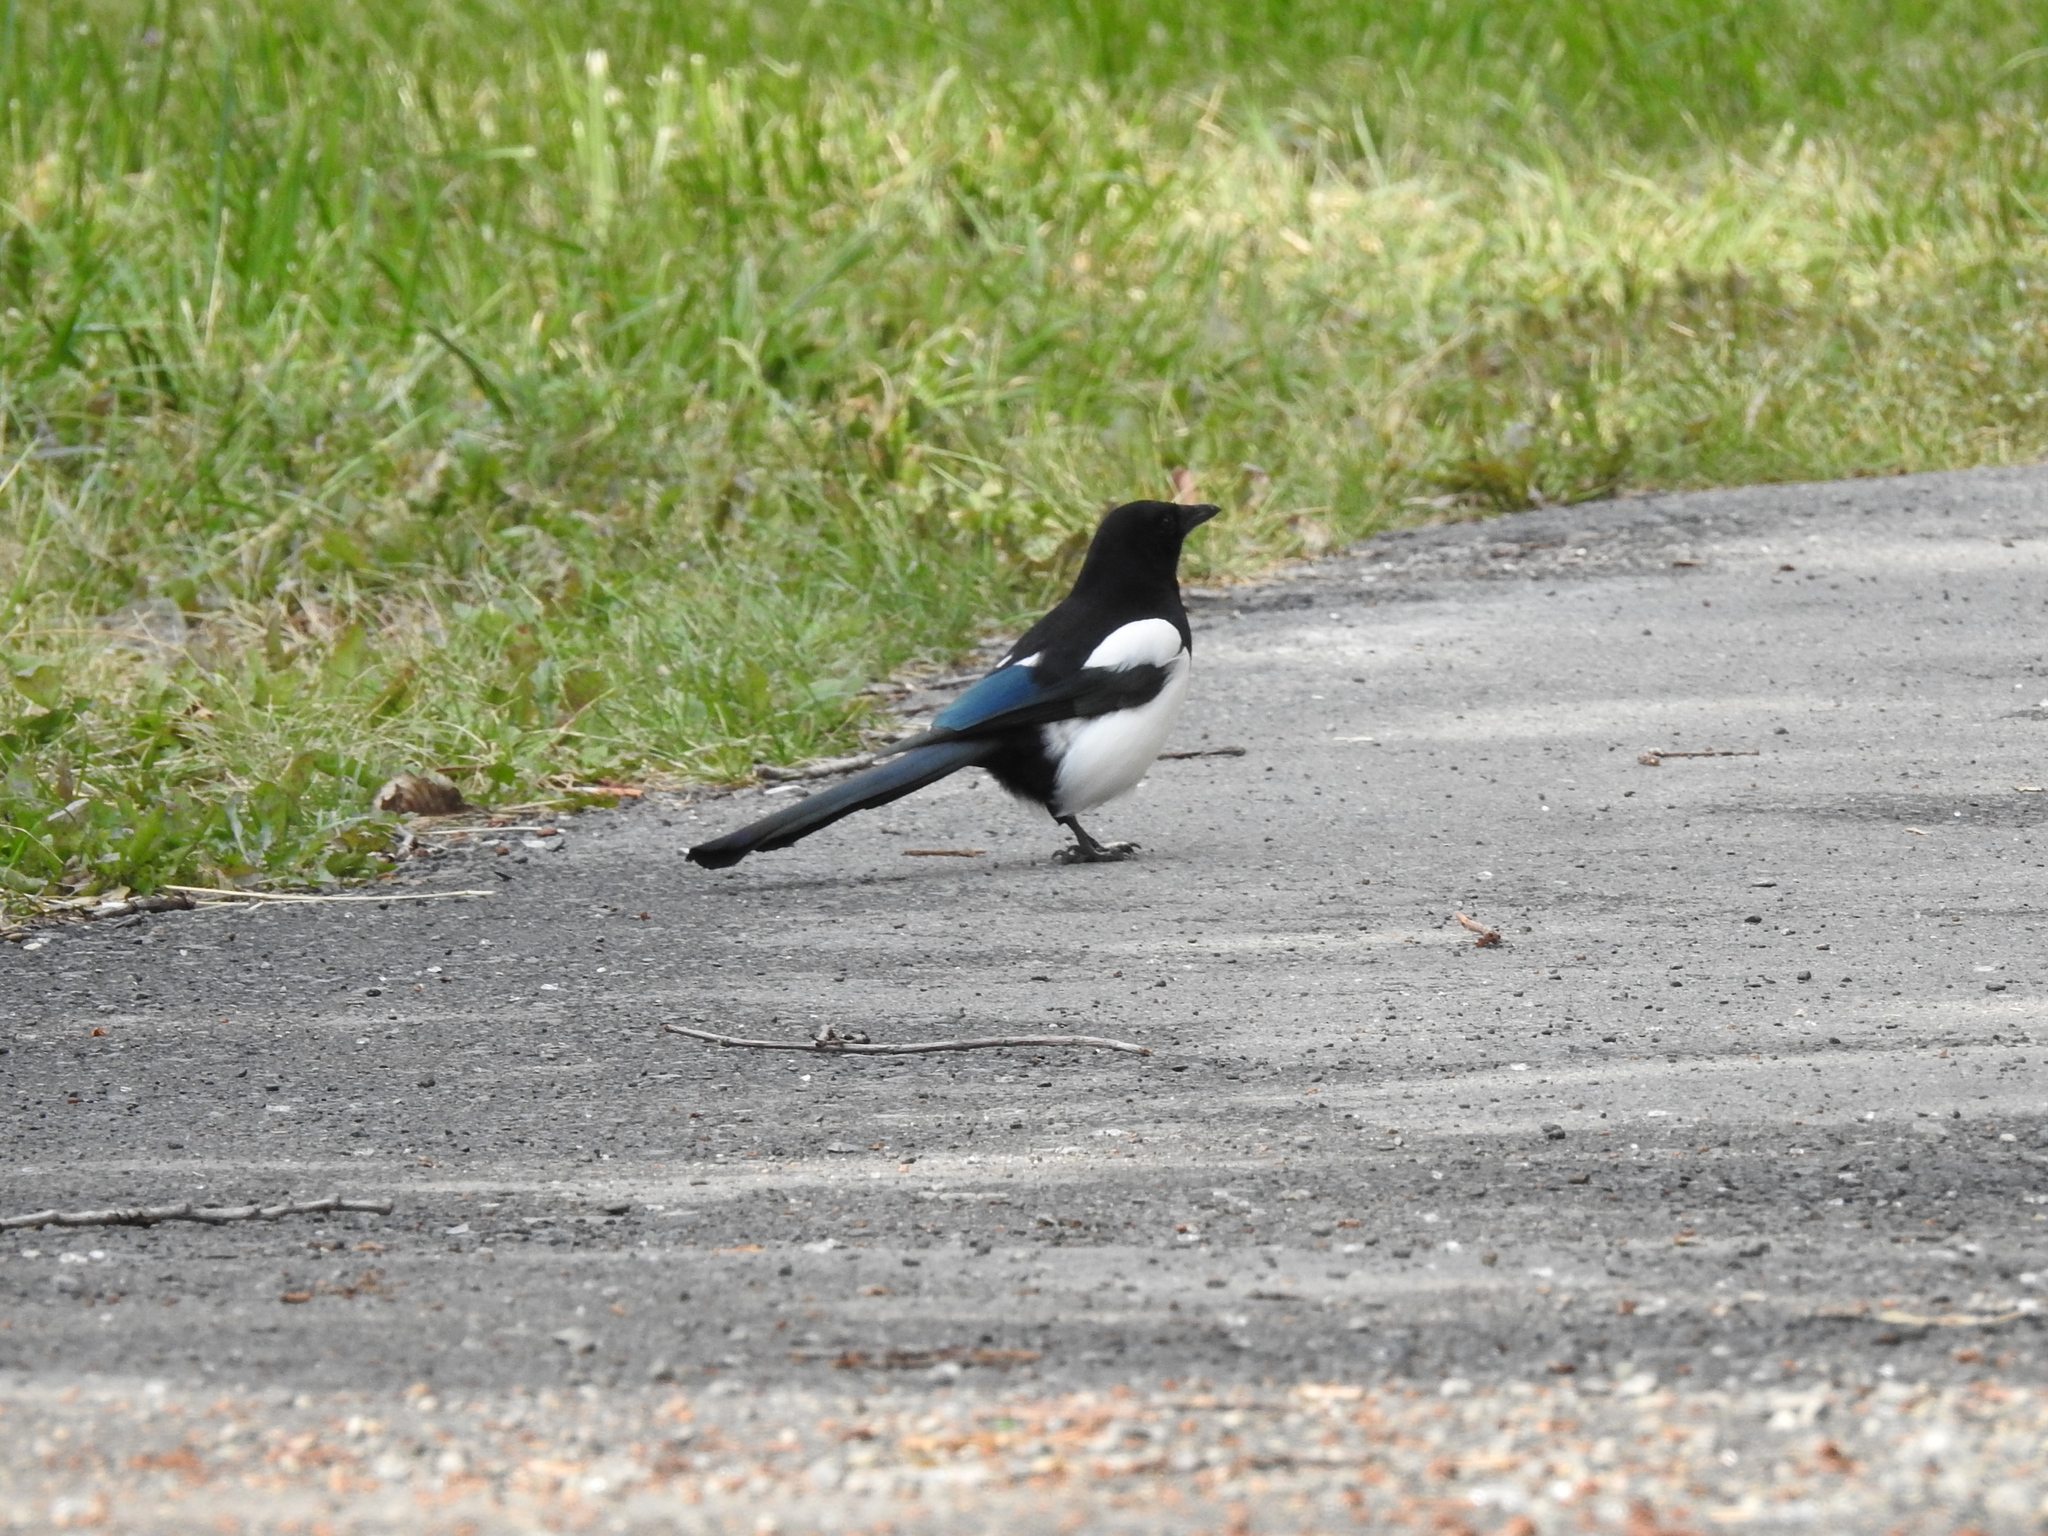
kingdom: Animalia
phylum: Chordata
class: Aves
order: Passeriformes
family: Corvidae
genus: Pica
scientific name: Pica pica
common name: Eurasian magpie
